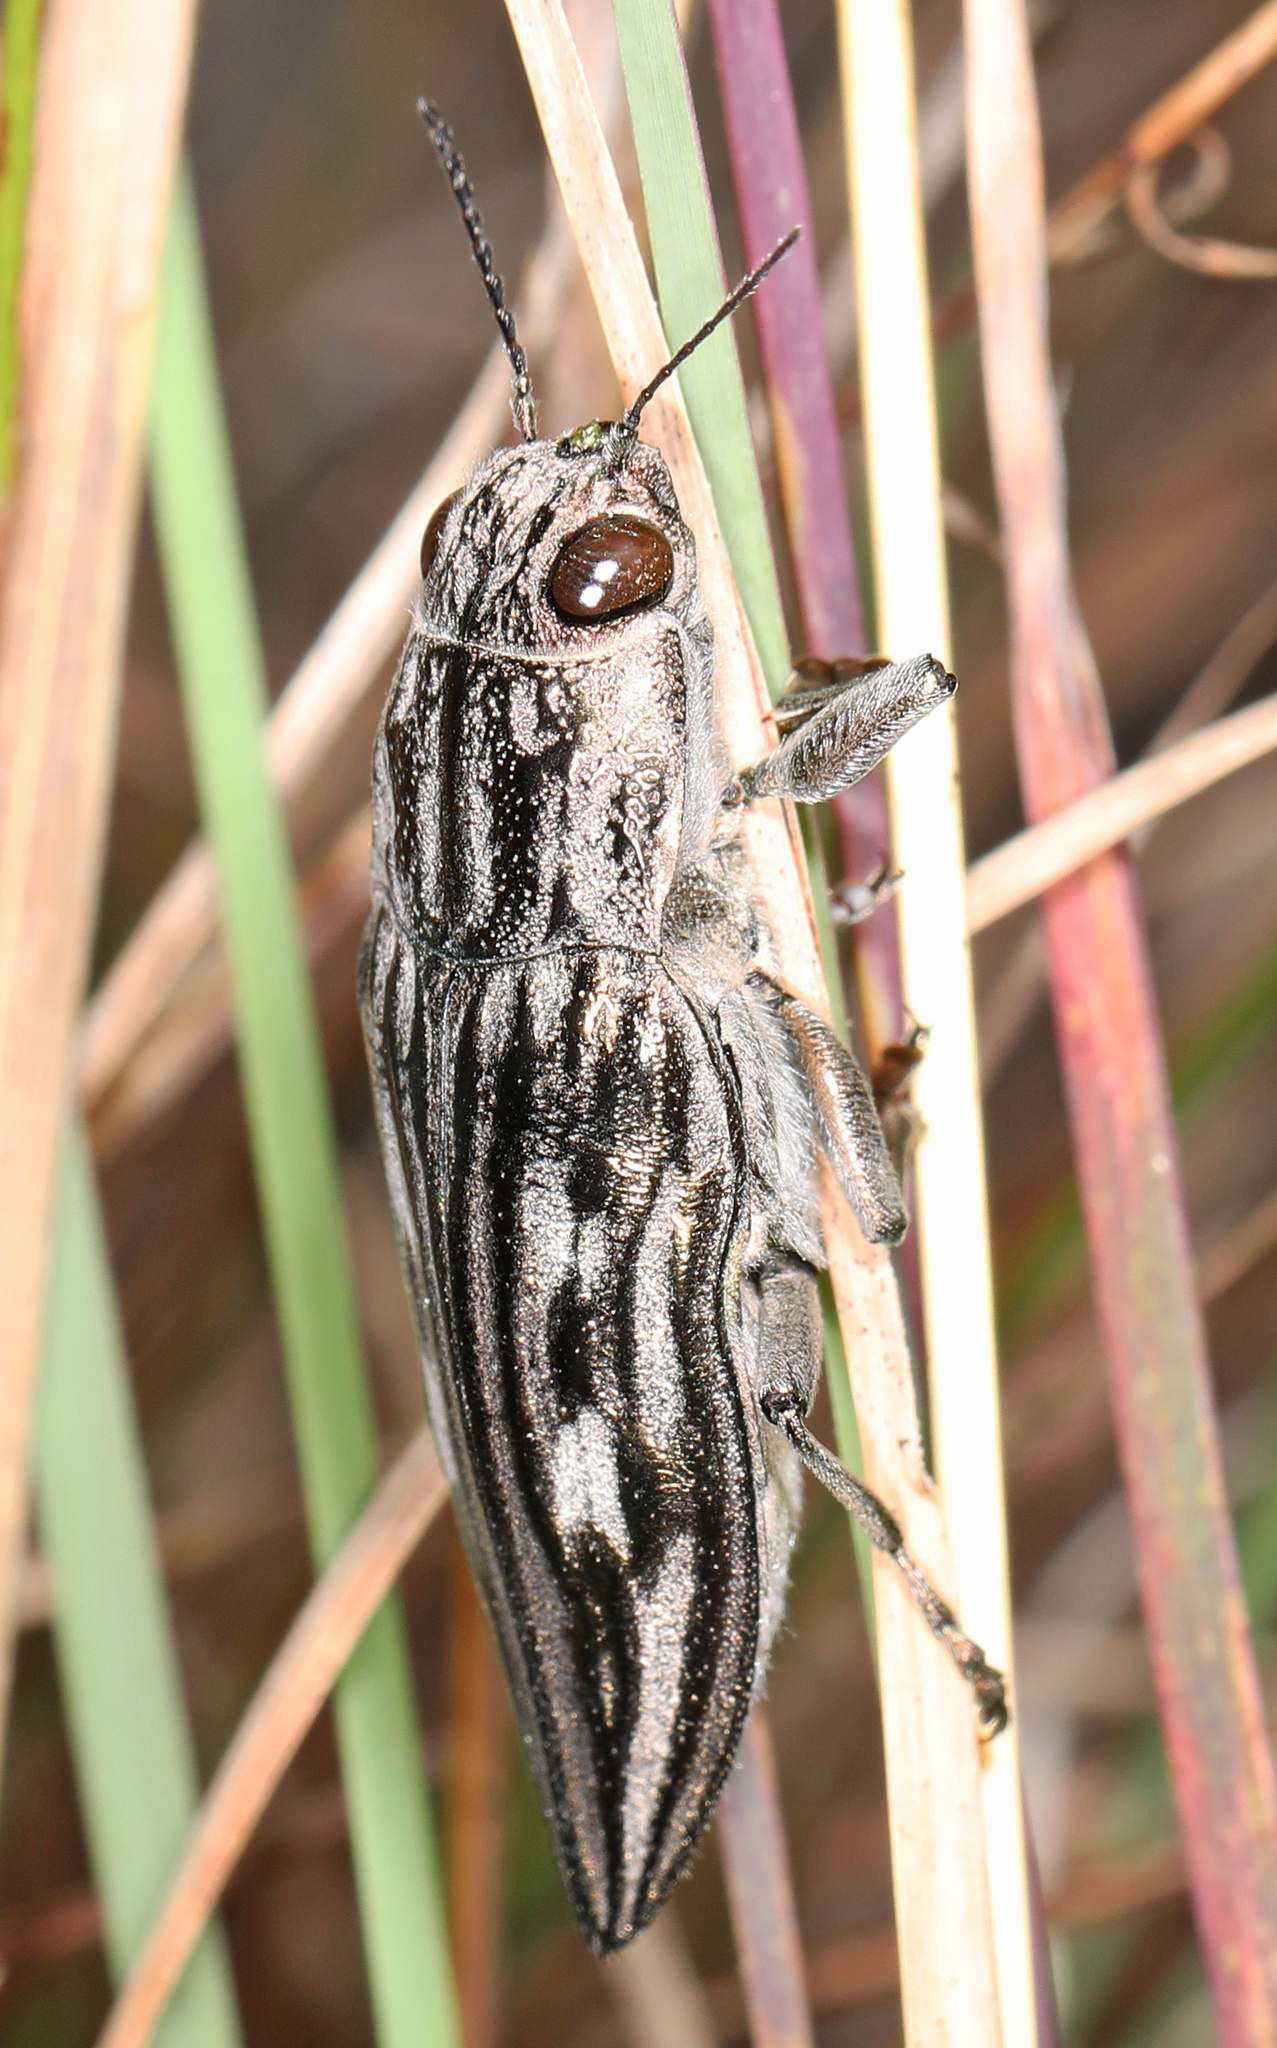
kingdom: Animalia
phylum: Arthropoda
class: Insecta
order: Coleoptera
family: Buprestidae
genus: Chalcophora
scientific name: Chalcophora georgiana
